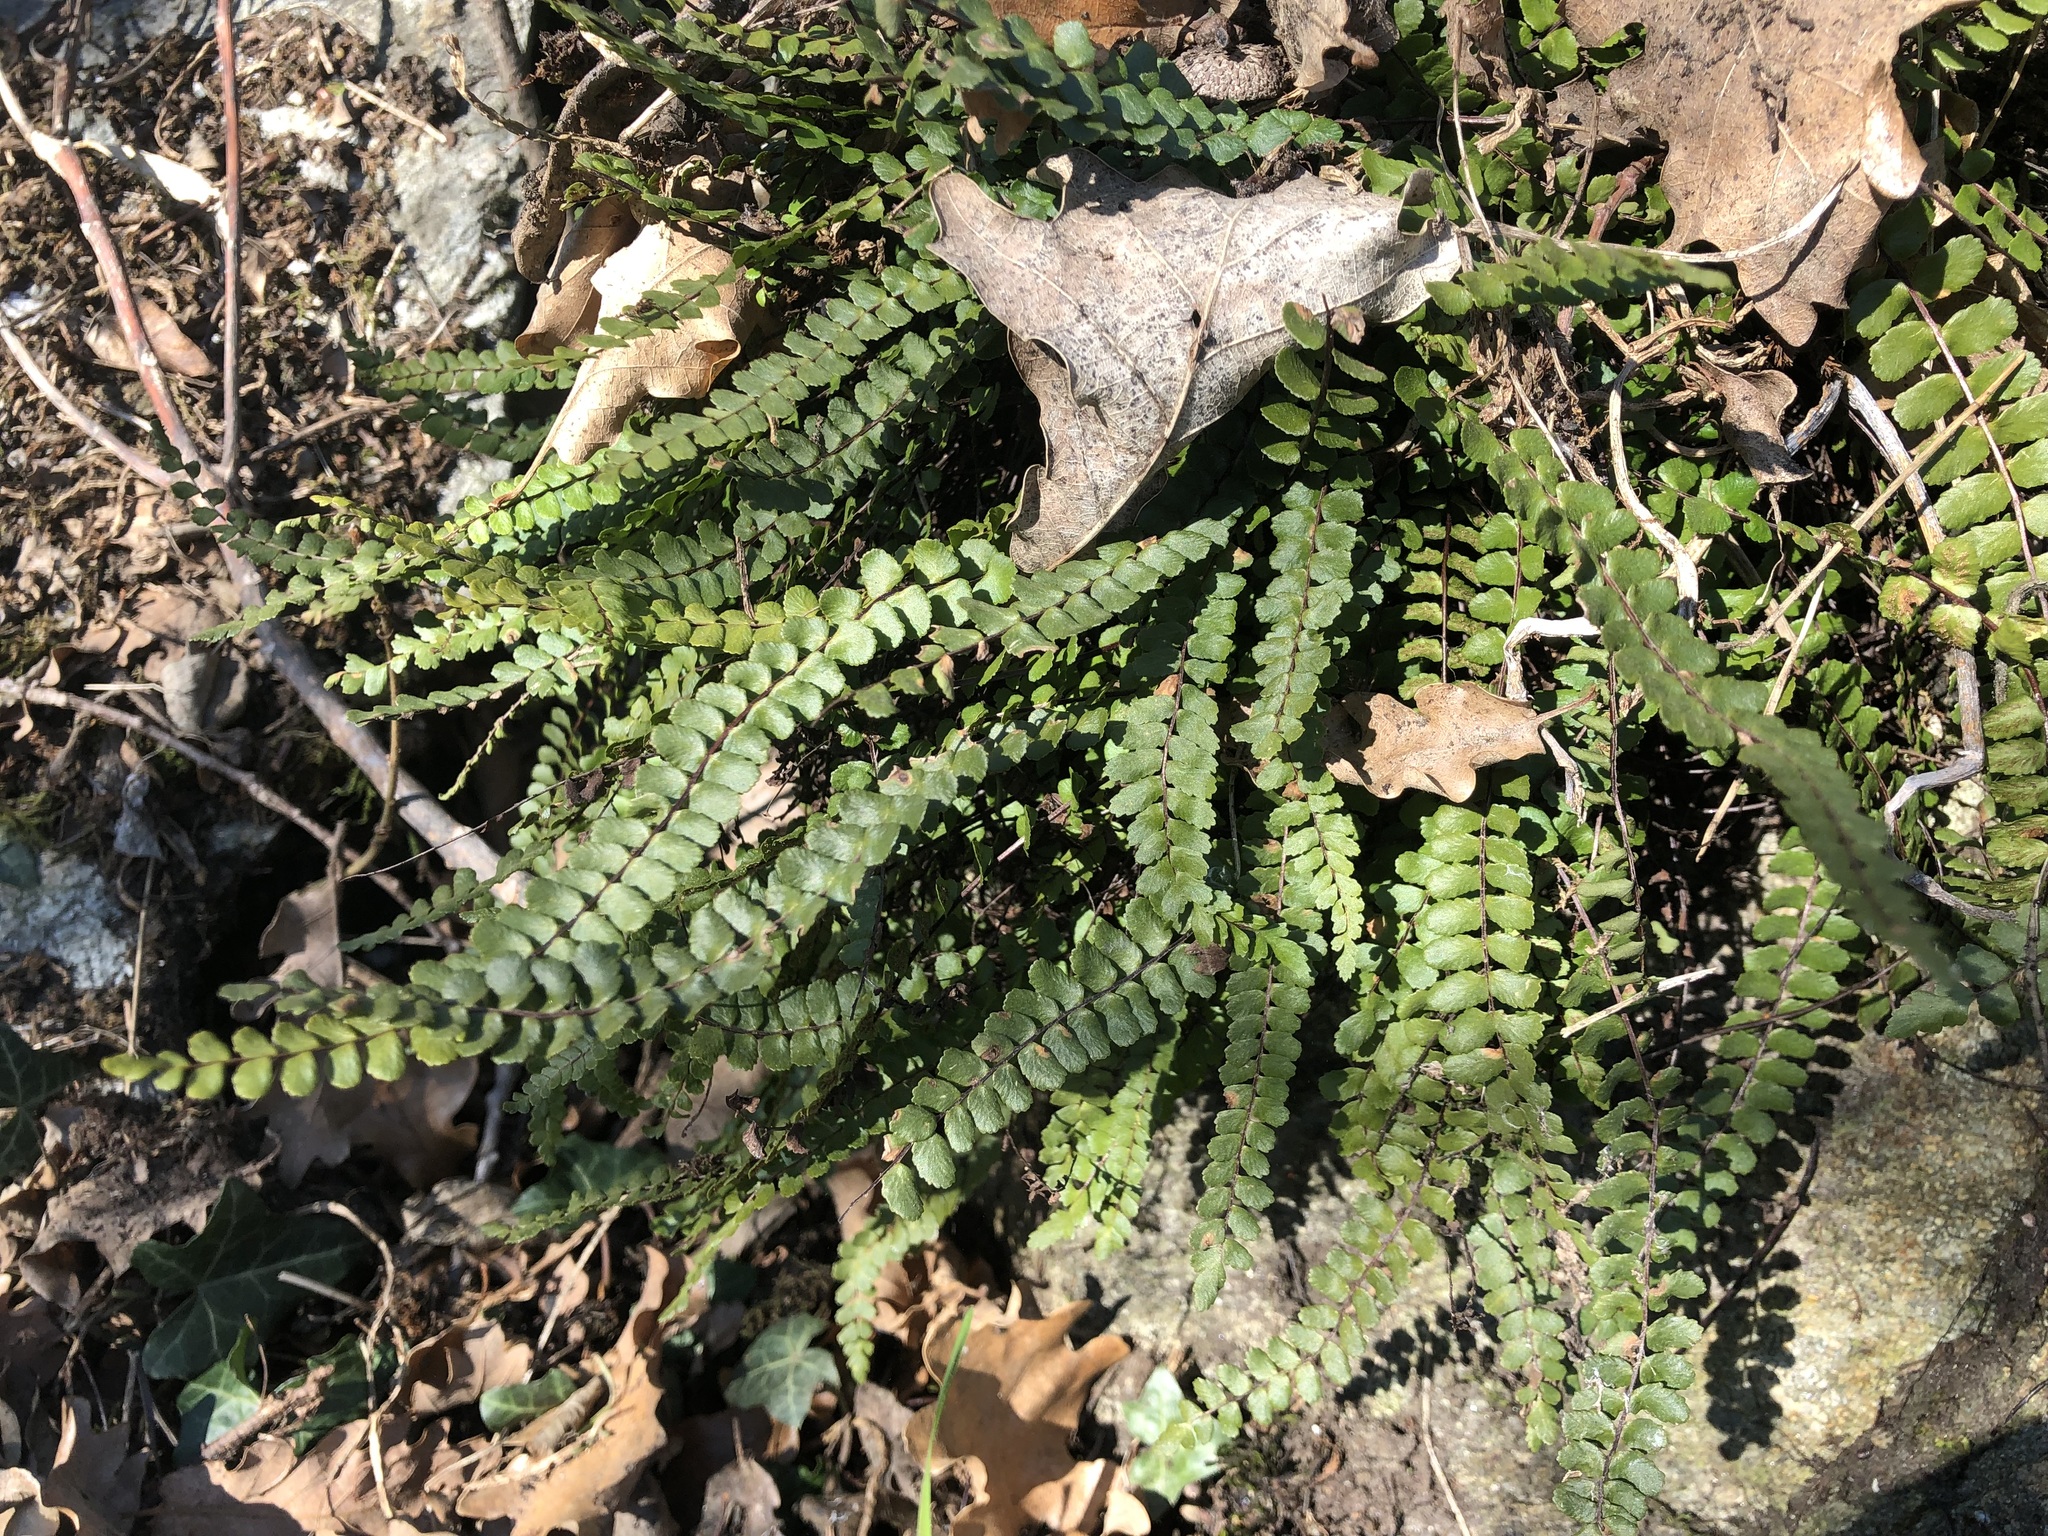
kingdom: Plantae
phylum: Tracheophyta
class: Polypodiopsida
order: Polypodiales
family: Aspleniaceae
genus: Asplenium
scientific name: Asplenium trichomanes
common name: Maidenhair spleenwort
